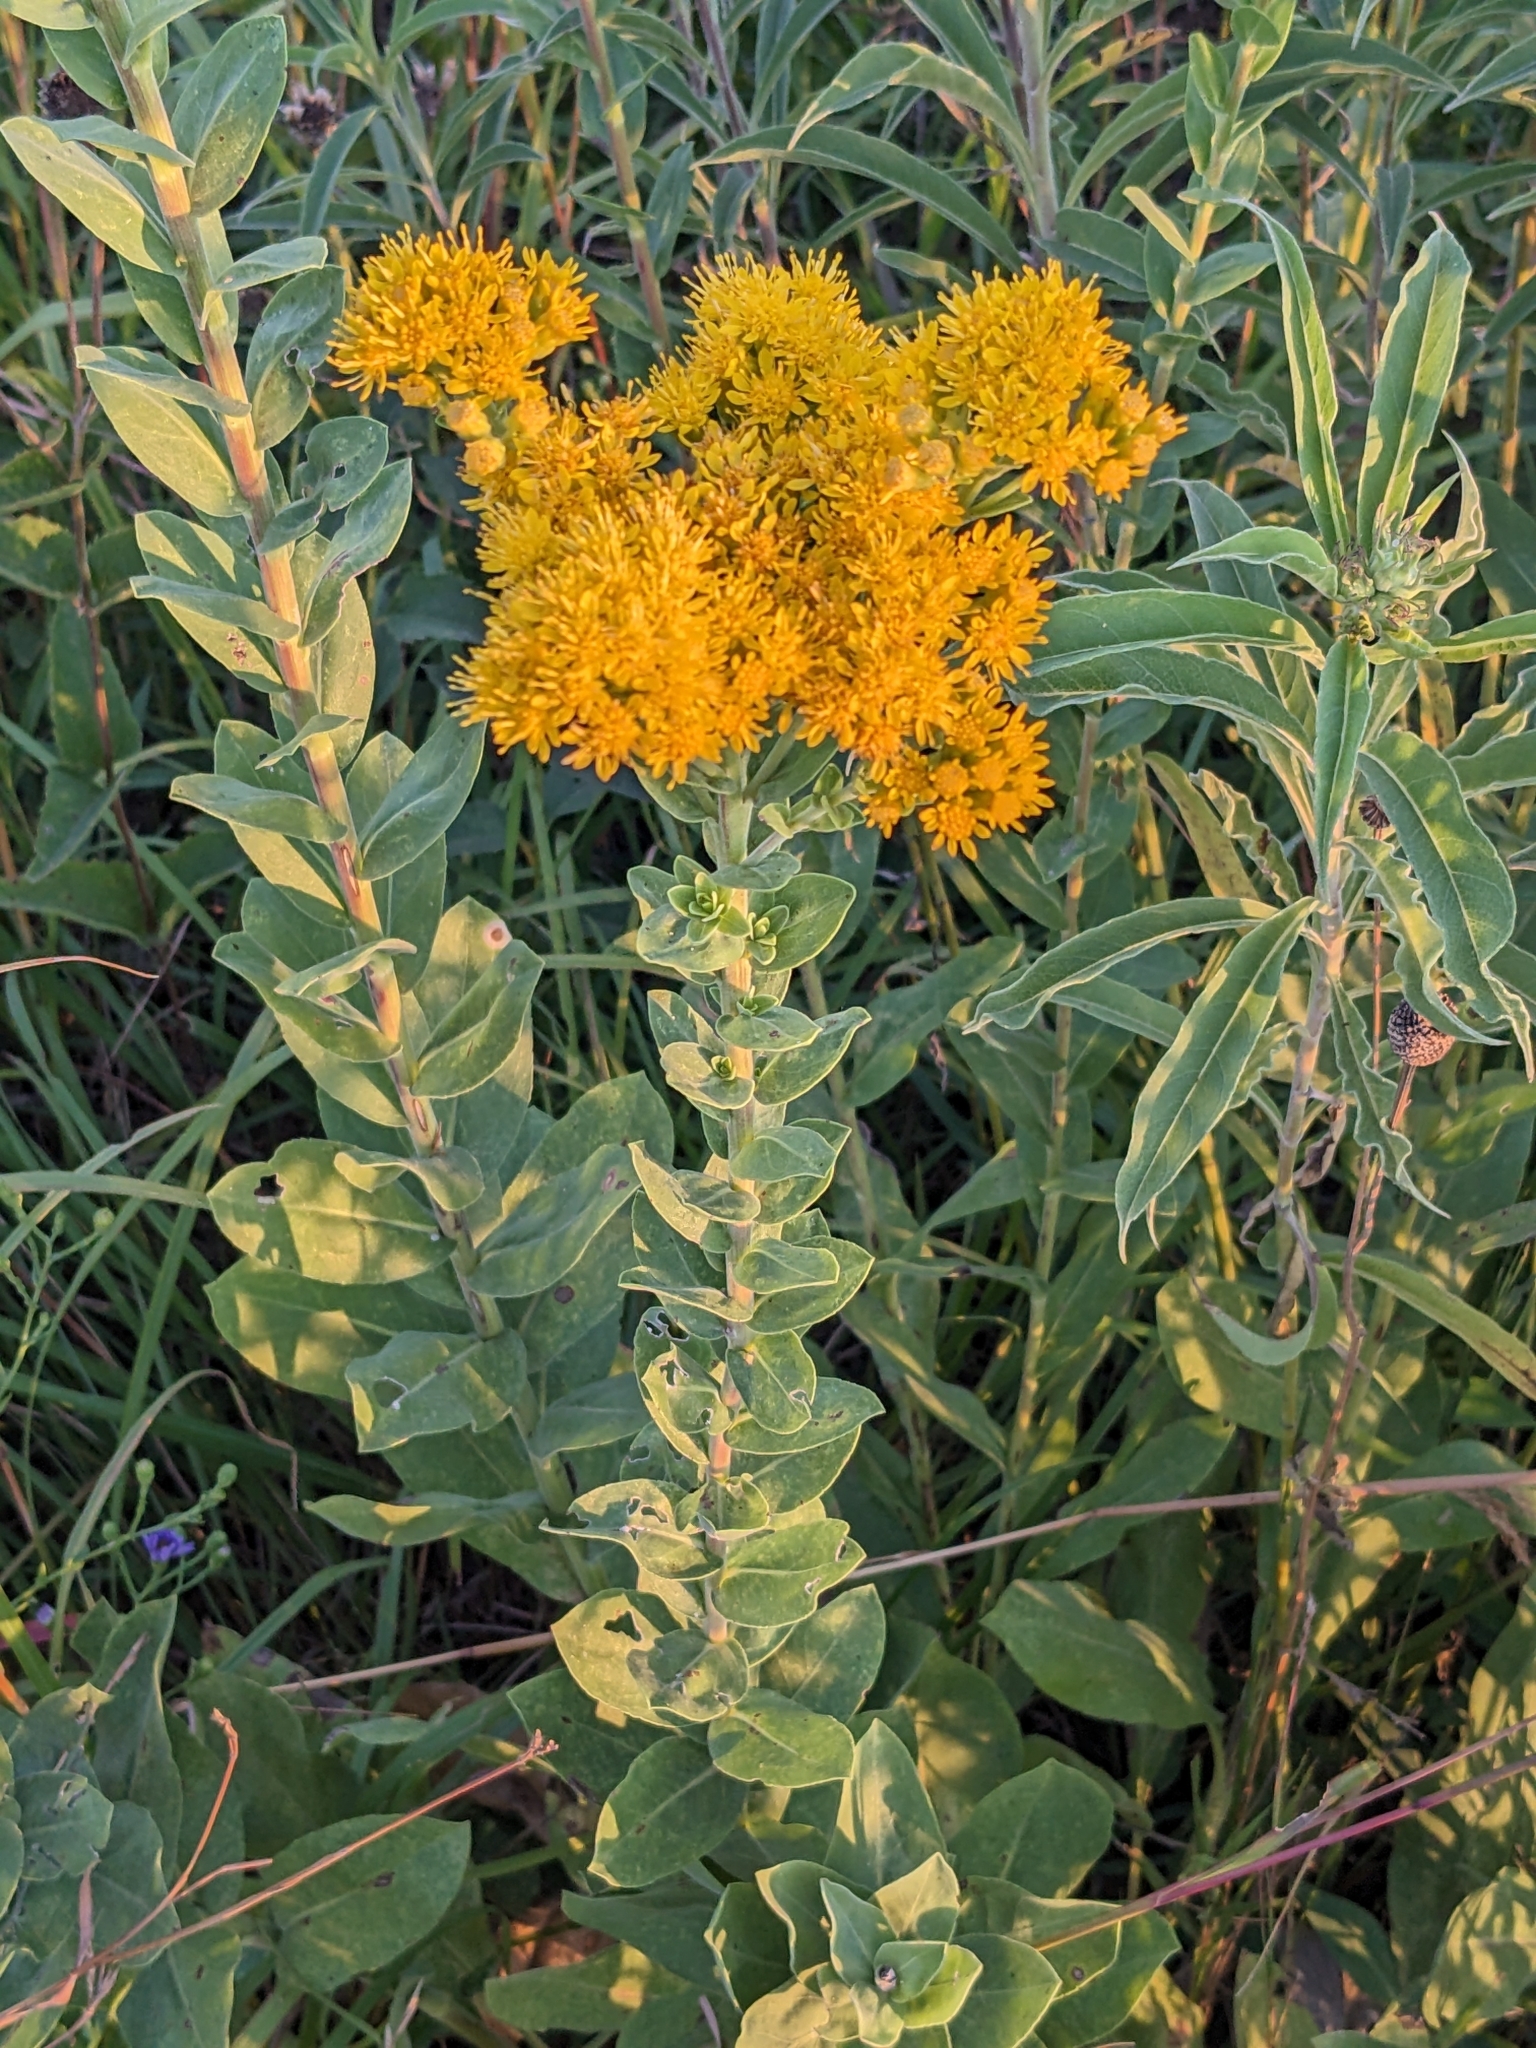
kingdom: Plantae
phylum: Tracheophyta
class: Magnoliopsida
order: Asterales
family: Asteraceae
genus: Solidago
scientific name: Solidago rigida
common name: Rigid goldenrod
